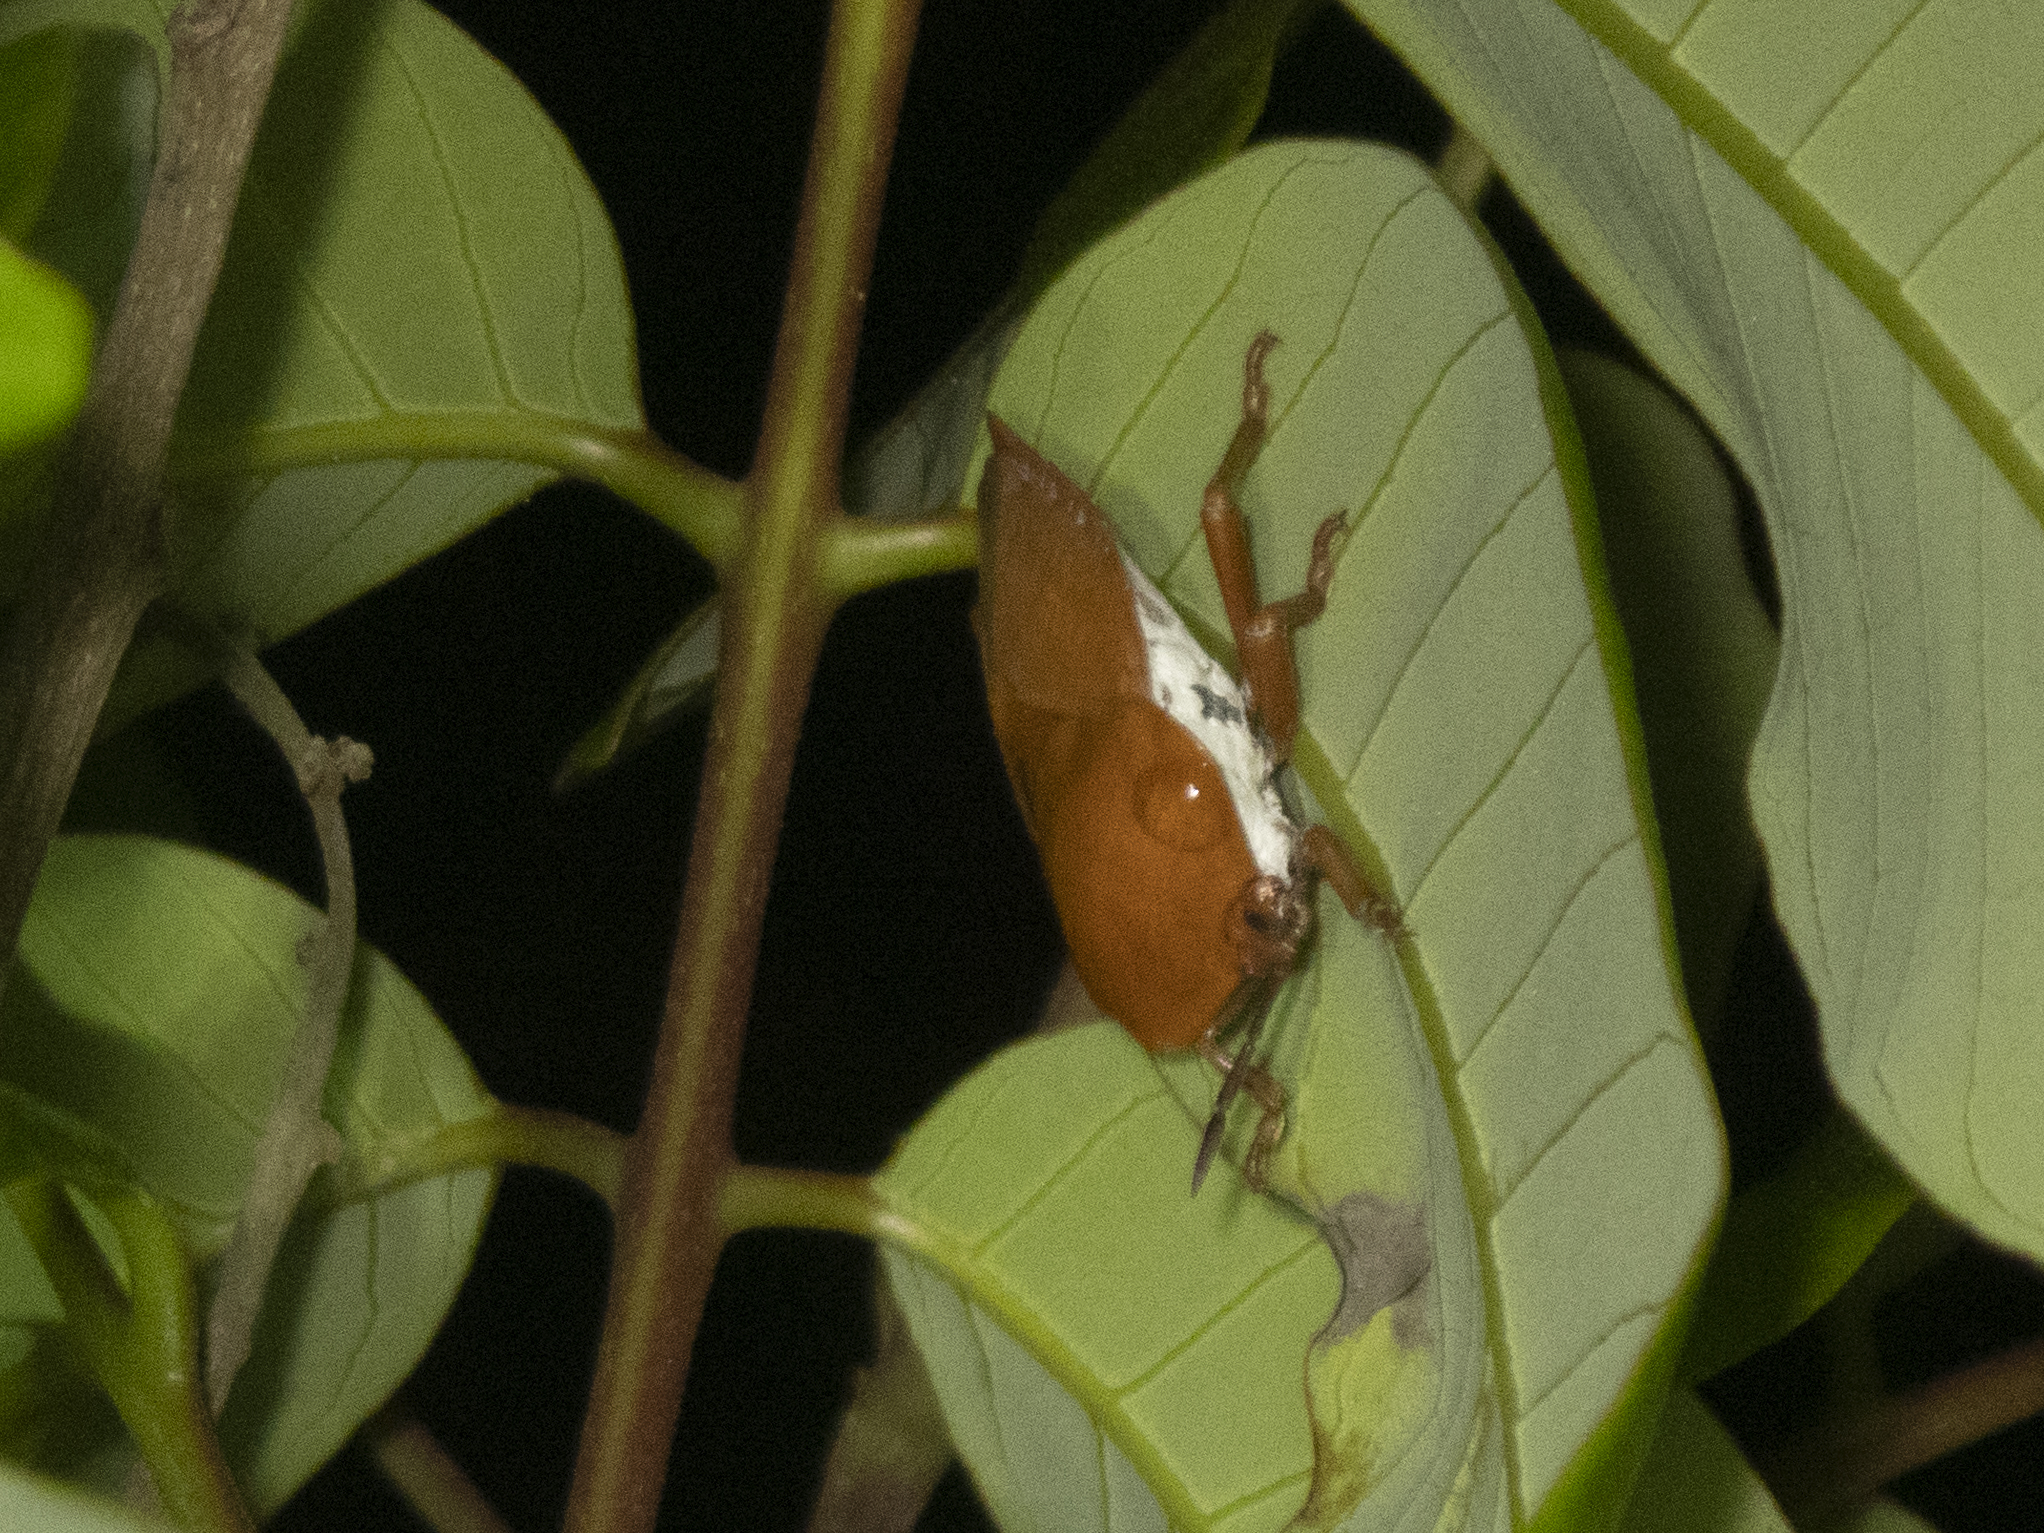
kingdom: Animalia
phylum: Arthropoda
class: Insecta
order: Hemiptera
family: Tessaratomidae
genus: Tessaratoma
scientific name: Tessaratoma papillosa
